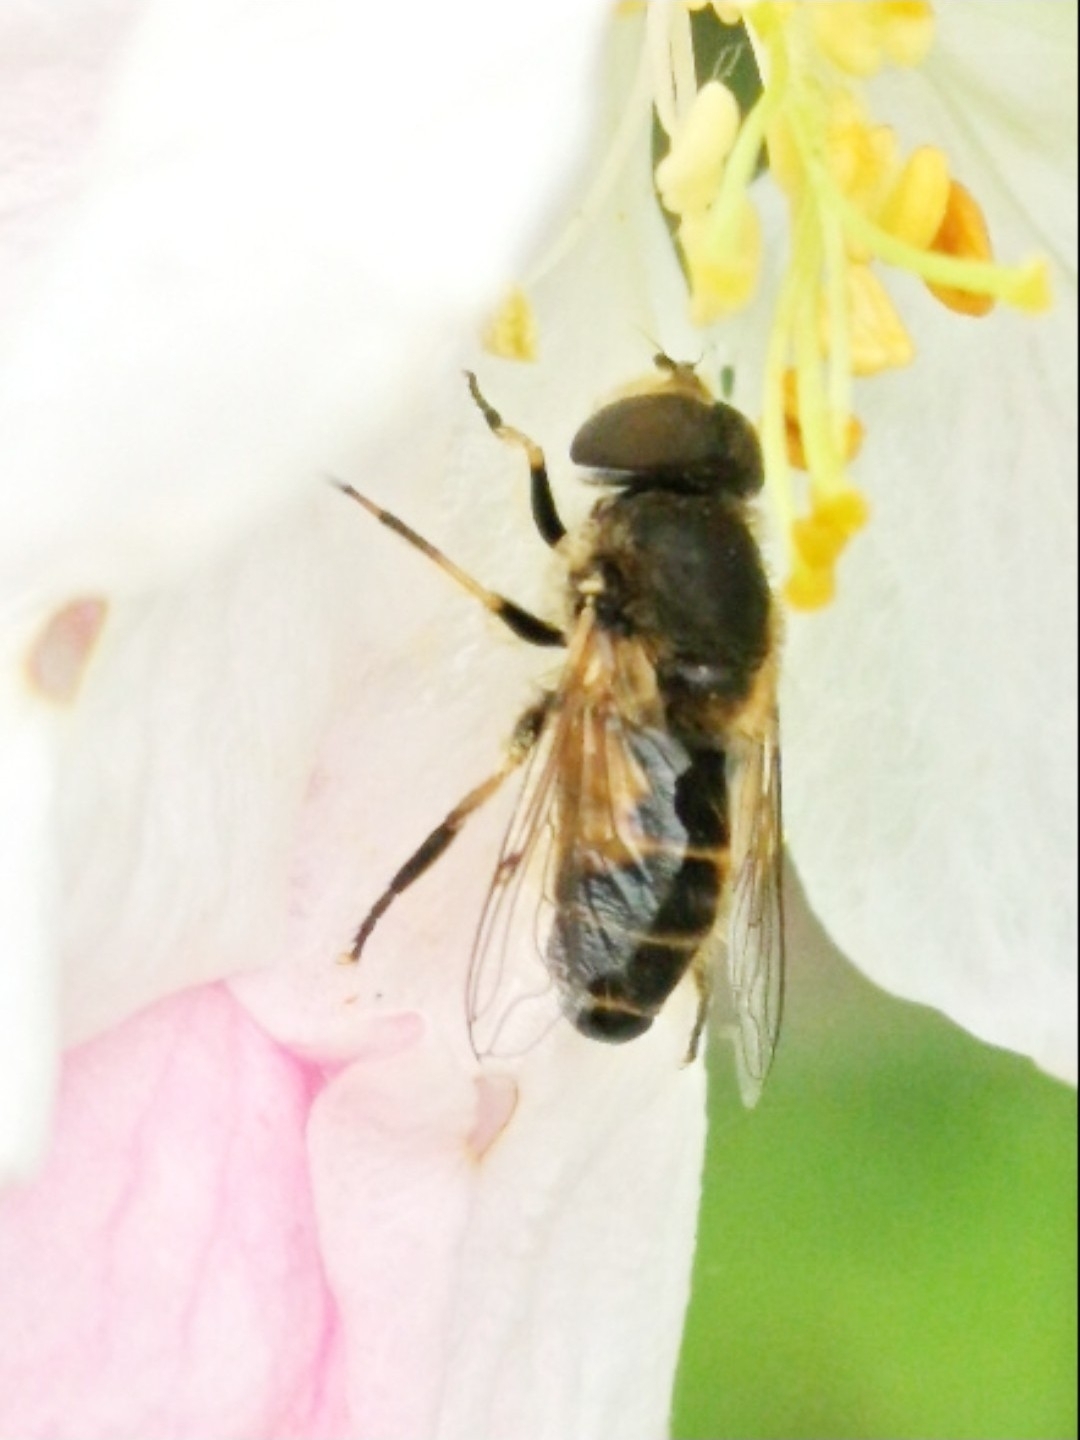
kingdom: Animalia
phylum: Arthropoda
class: Insecta
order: Diptera
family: Syrphidae
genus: Eristalis
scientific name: Eristalis arbustorum
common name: Hover fly
